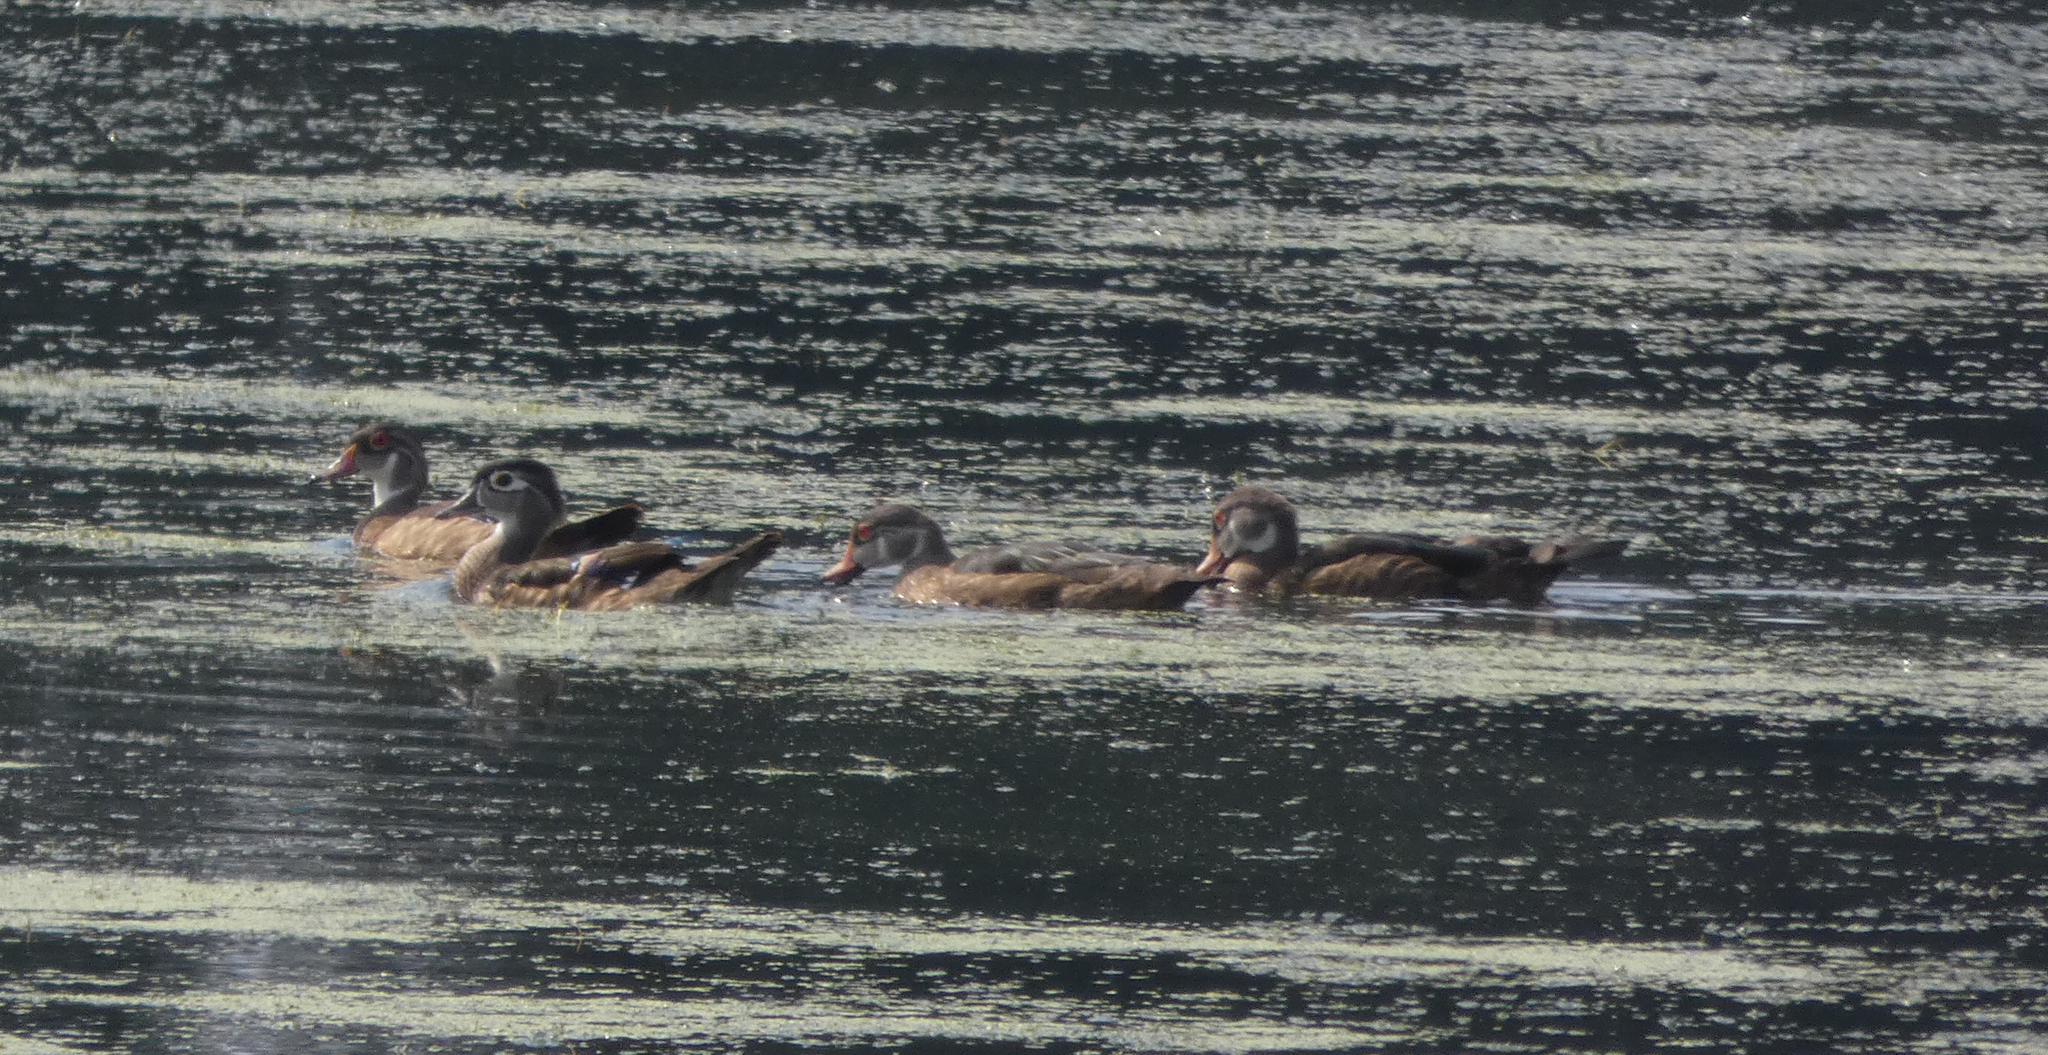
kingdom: Animalia
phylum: Chordata
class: Aves
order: Anseriformes
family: Anatidae
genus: Aix
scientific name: Aix sponsa
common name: Wood duck
